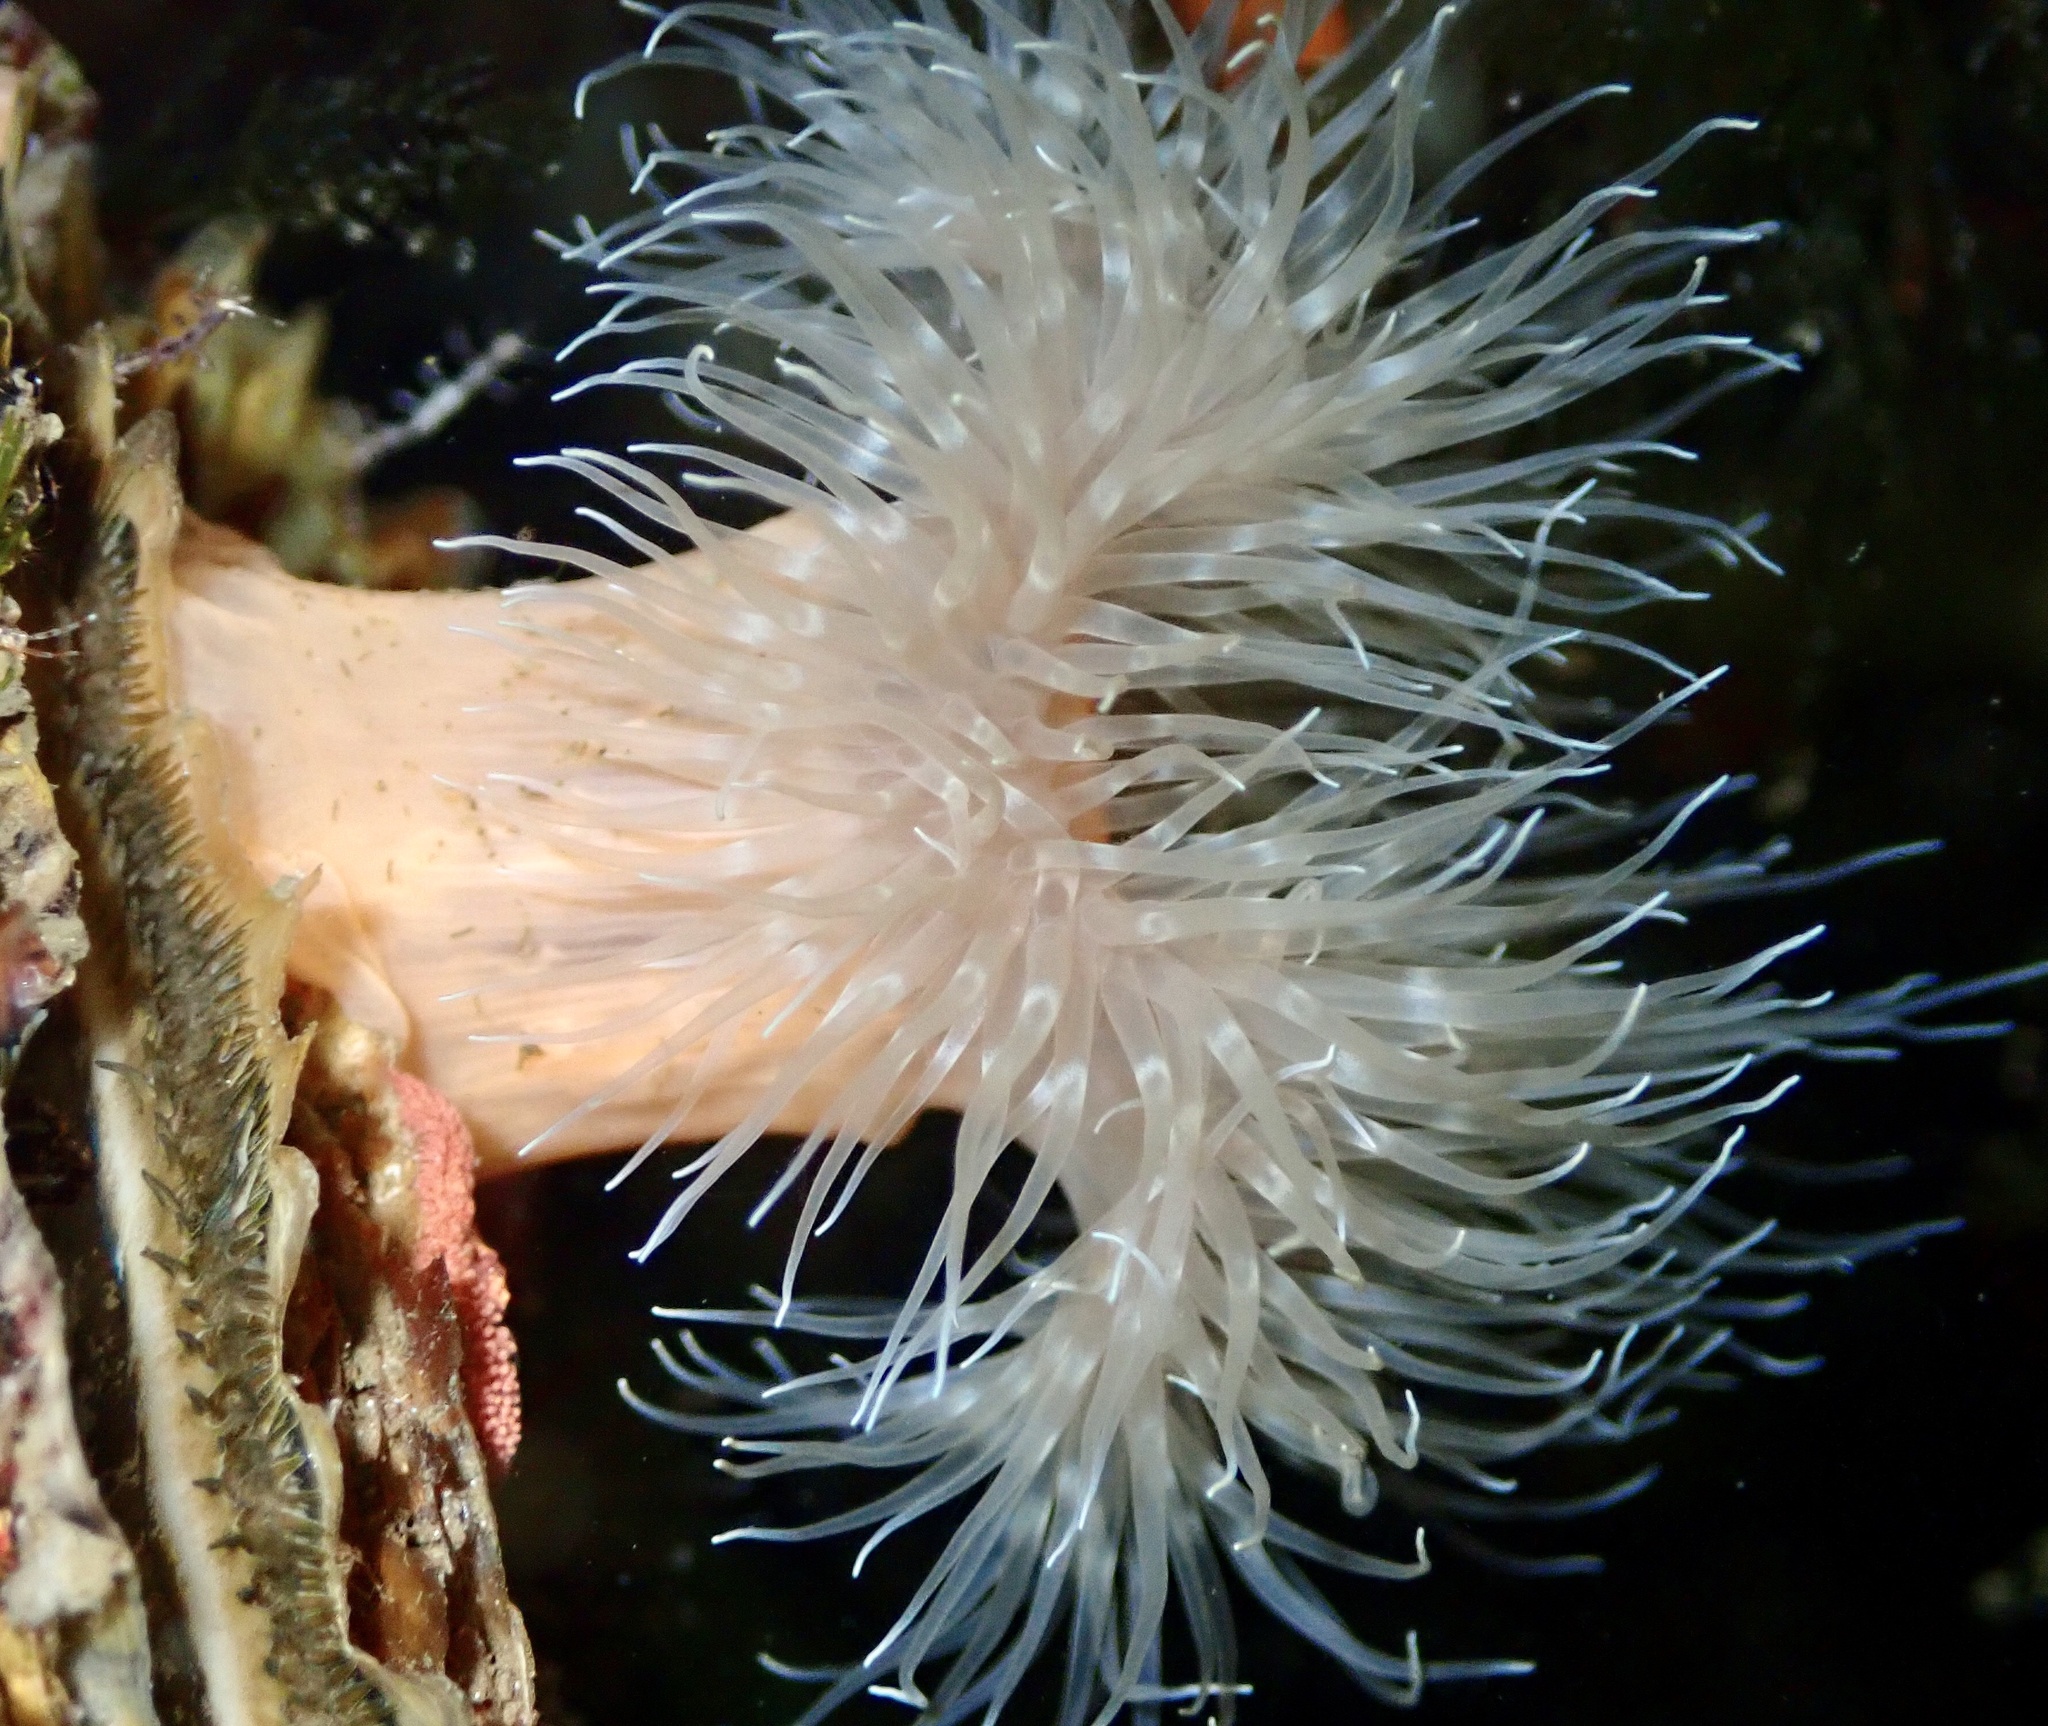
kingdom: Animalia
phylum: Cnidaria
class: Anthozoa
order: Actiniaria
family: Metridiidae
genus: Metridium
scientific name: Metridium senile
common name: Clonal plumose anemone
